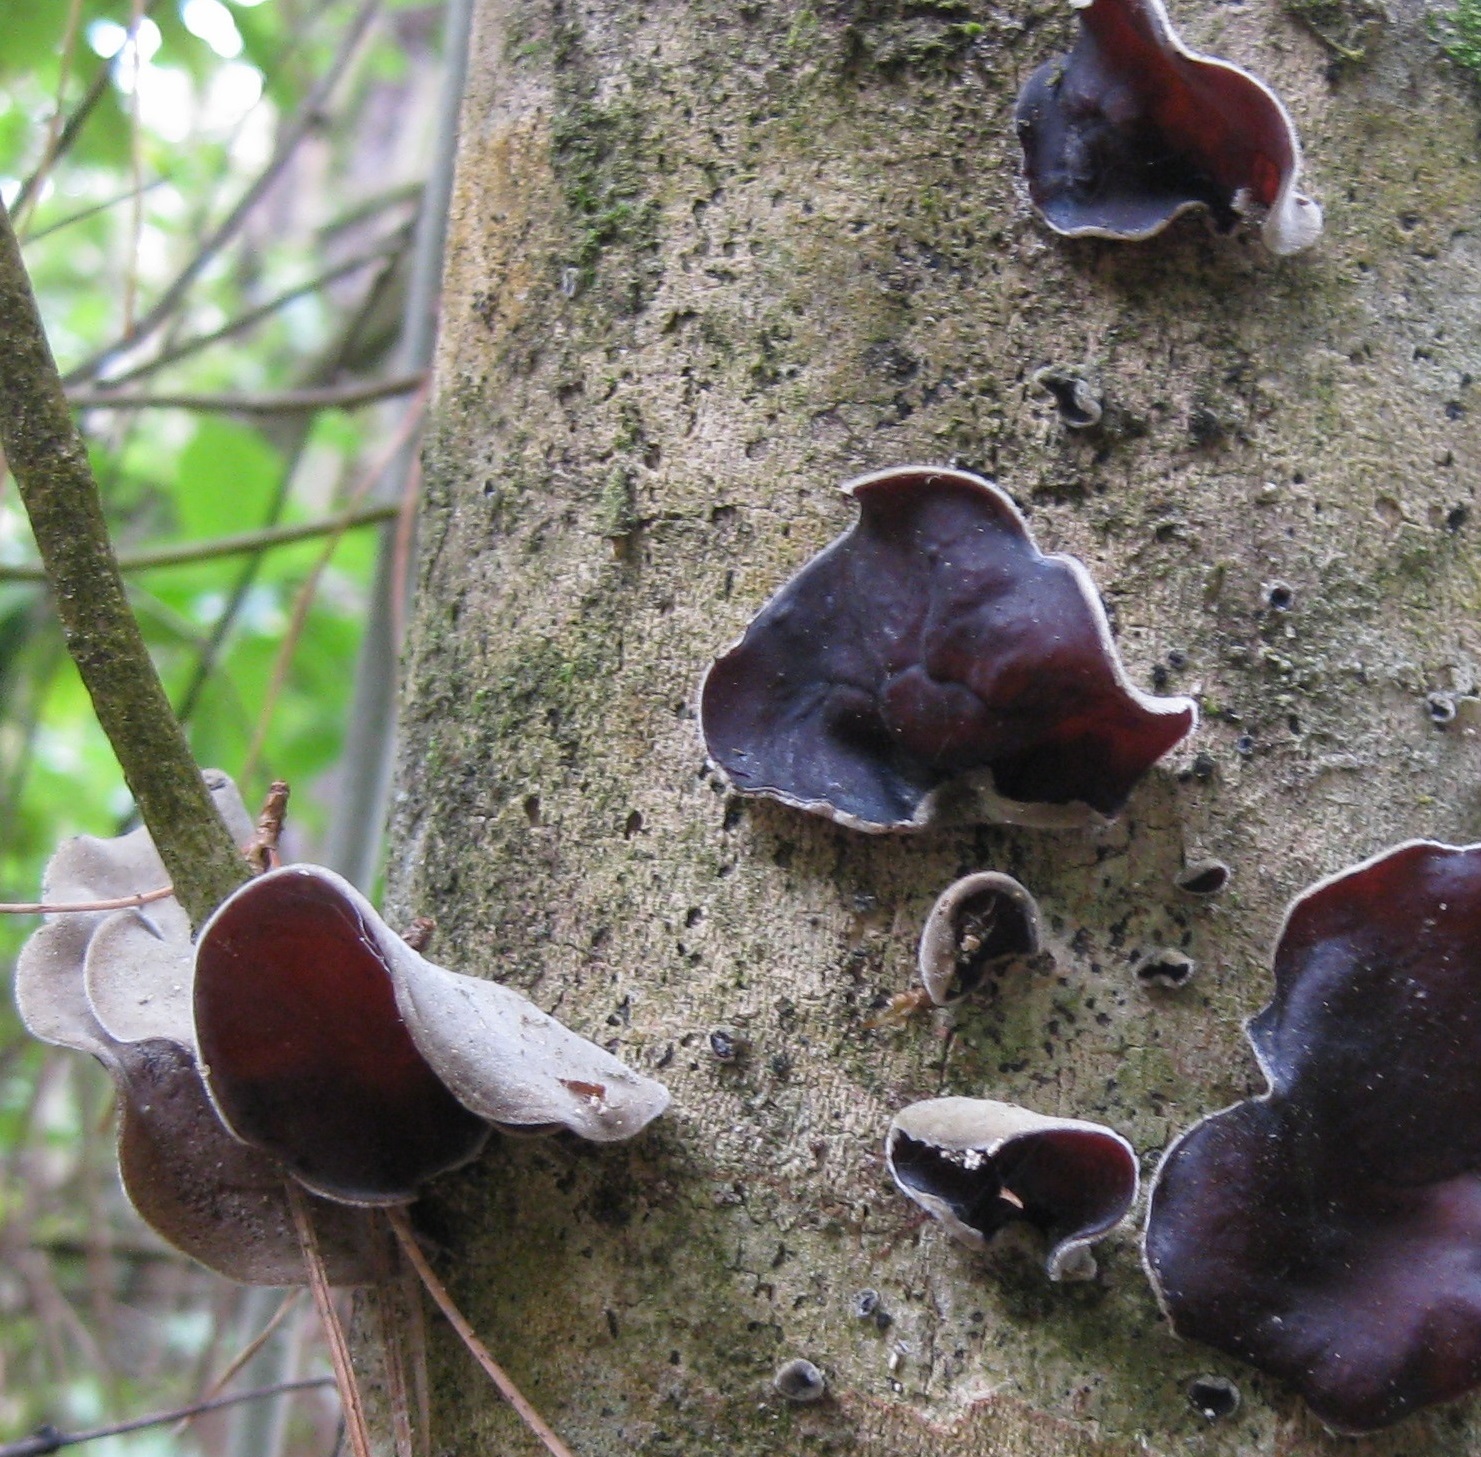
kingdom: Fungi
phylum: Basidiomycota
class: Agaricomycetes
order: Auriculariales
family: Auriculariaceae
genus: Auricularia
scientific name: Auricularia cornea
